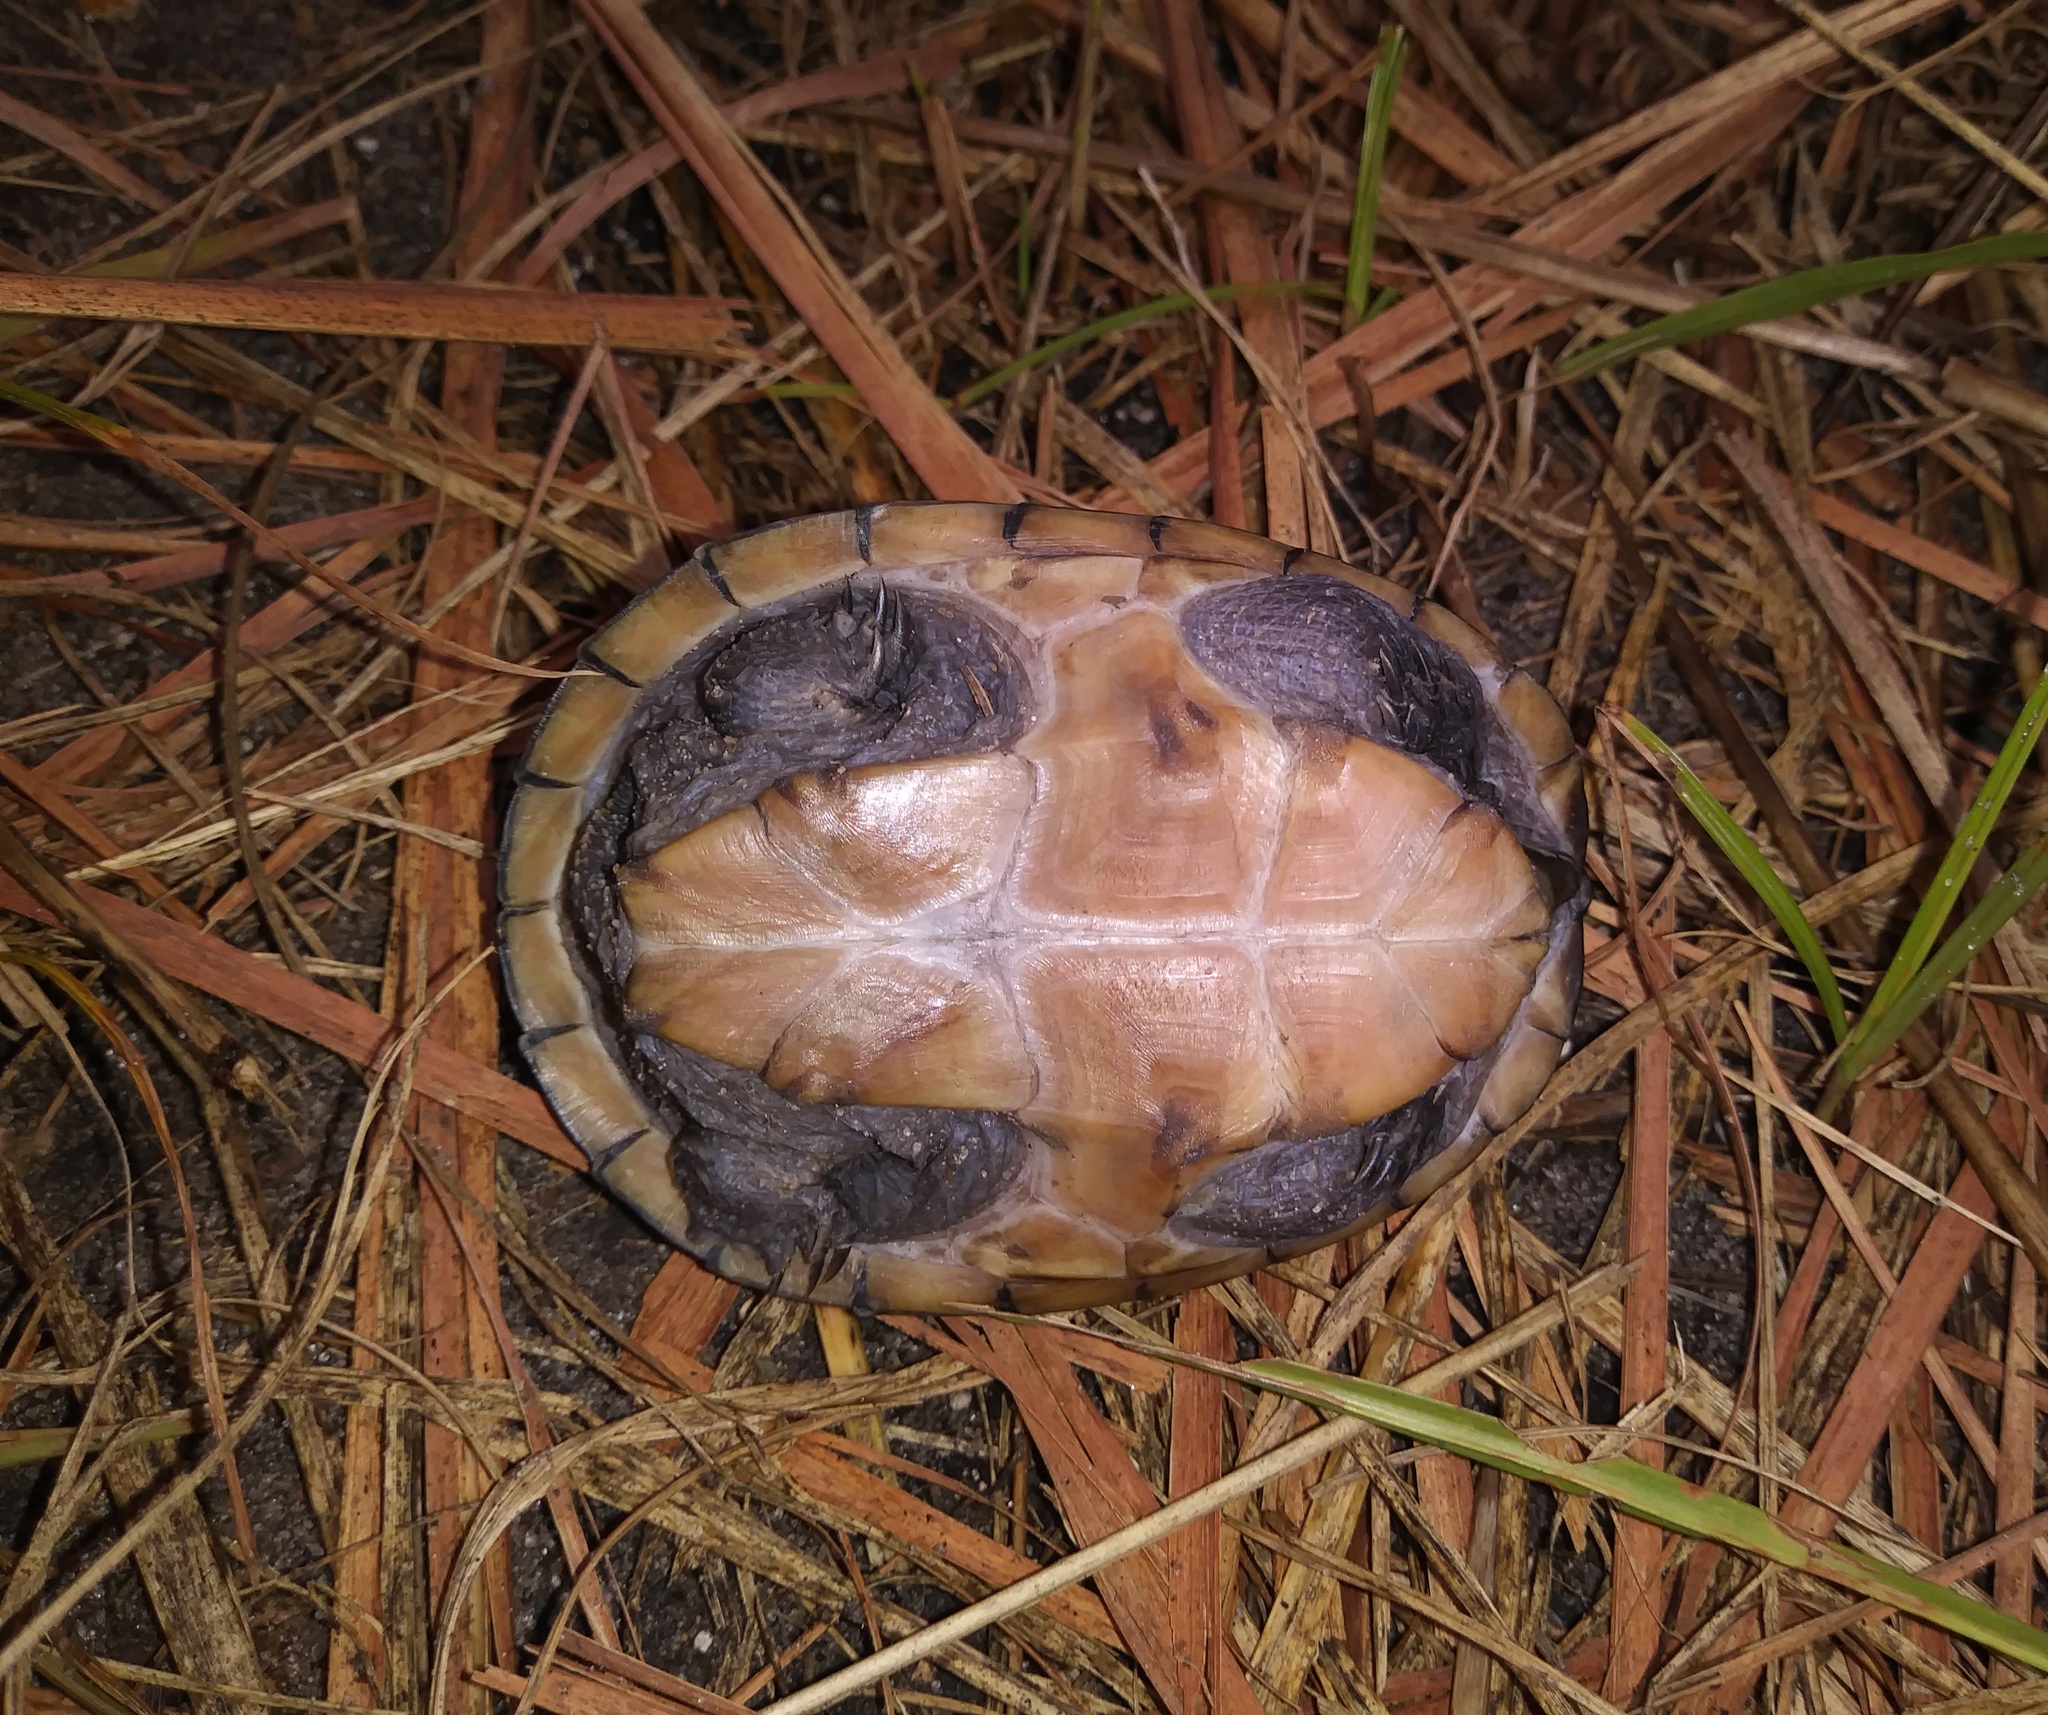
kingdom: Animalia
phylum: Chordata
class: Testudines
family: Kinosternidae
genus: Sternotherus
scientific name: Sternotherus odoratus
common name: Common musk turtle
